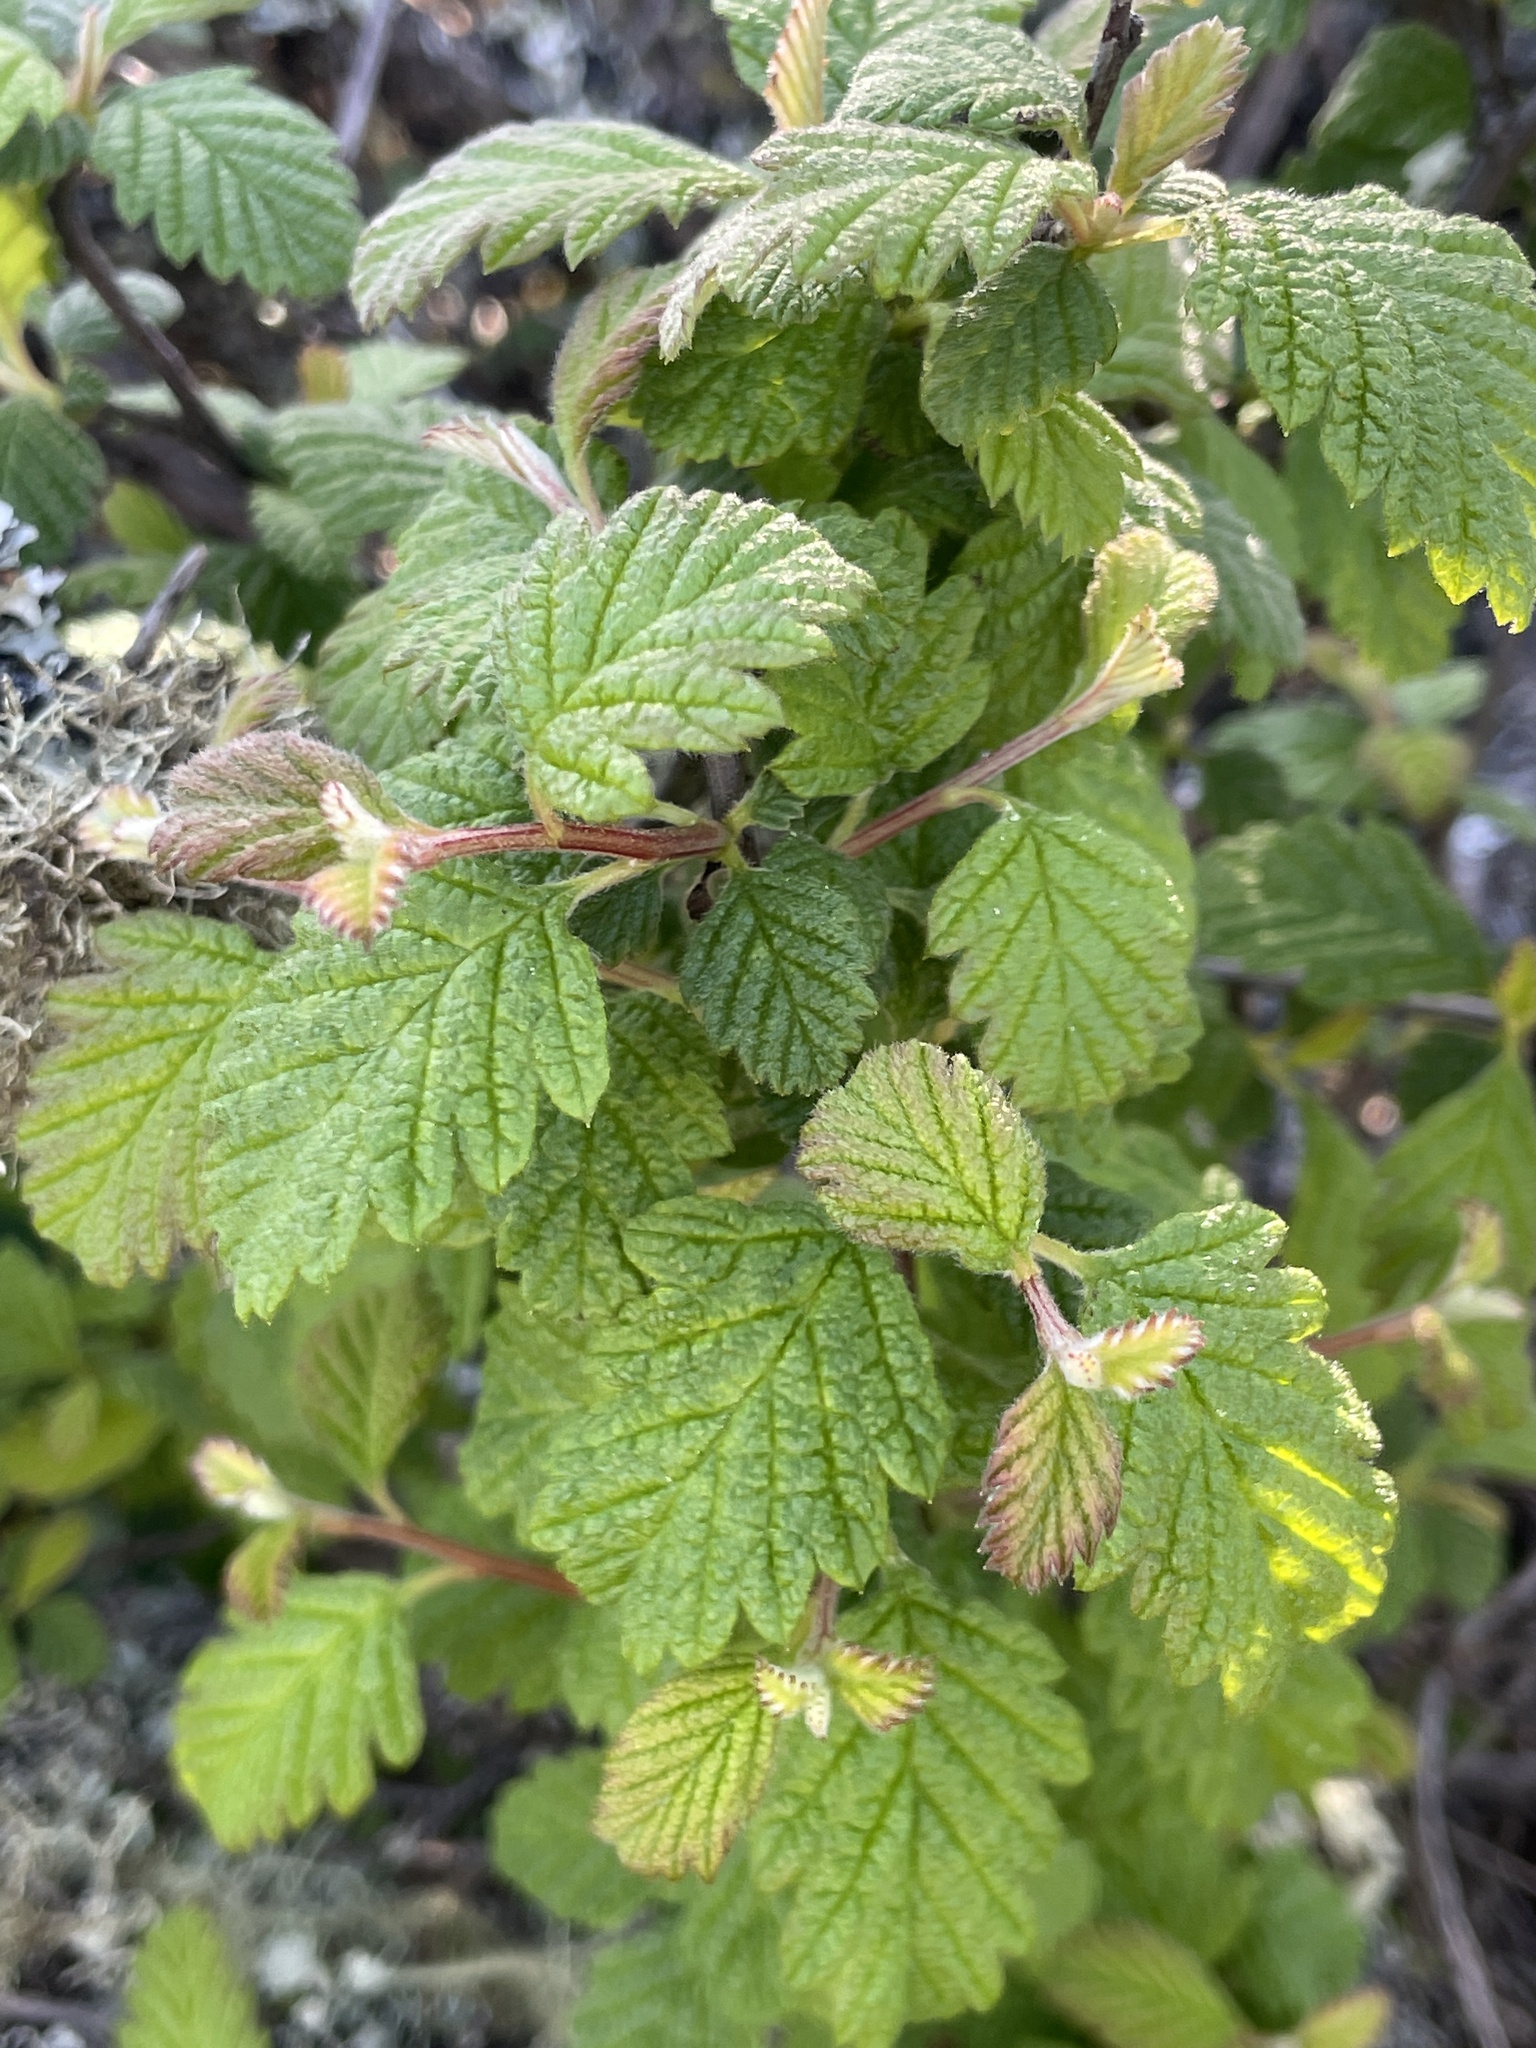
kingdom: Plantae
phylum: Tracheophyta
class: Magnoliopsida
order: Rosales
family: Rosaceae
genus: Holodiscus
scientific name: Holodiscus discolor
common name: Oceanspray
